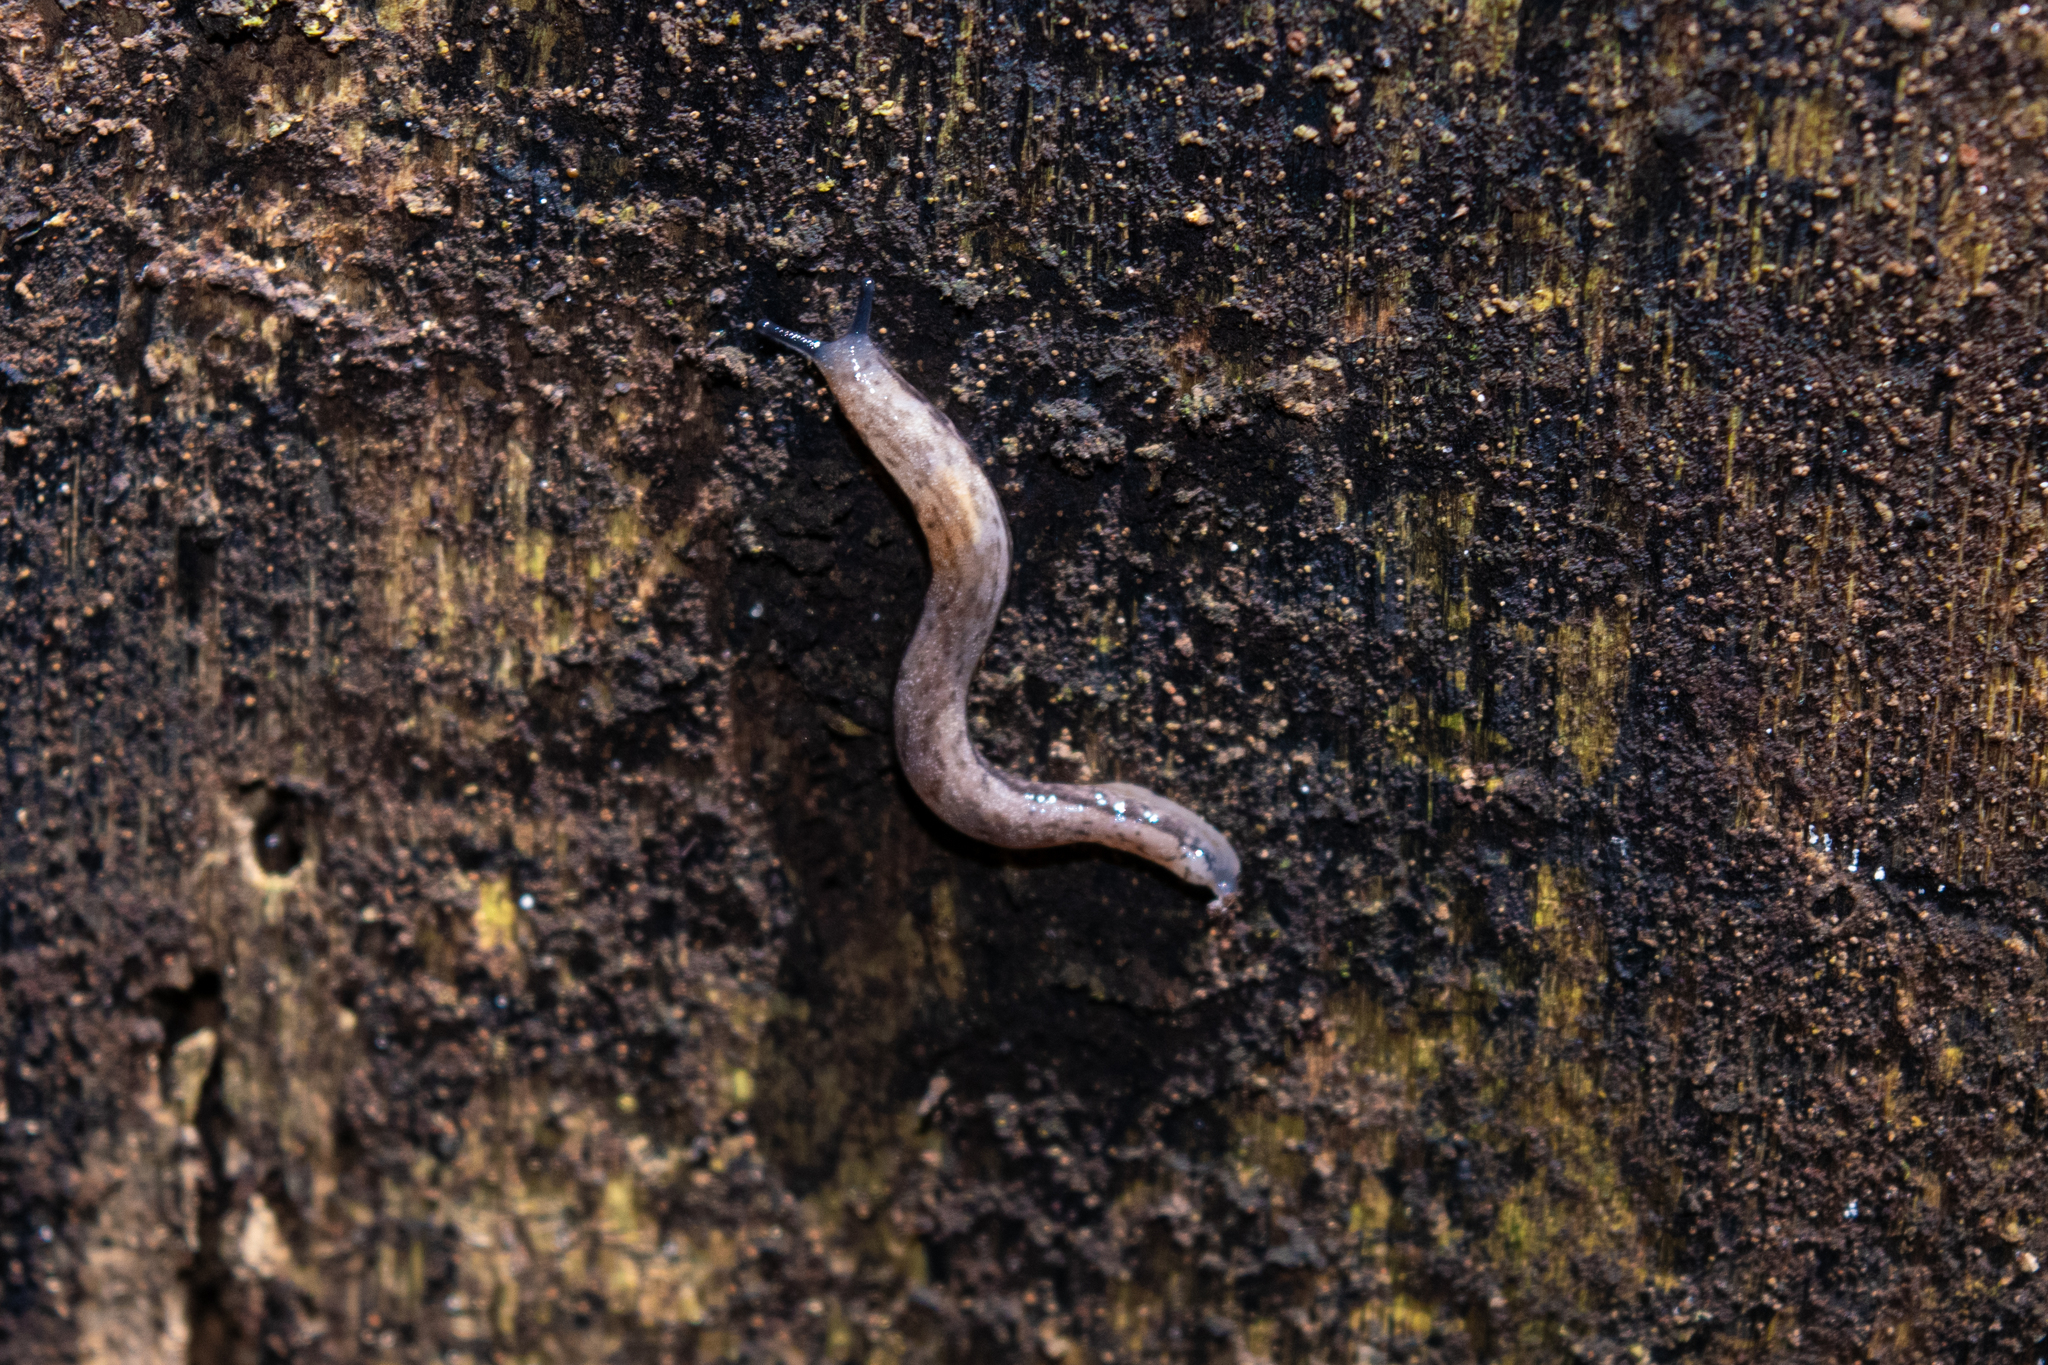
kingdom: Animalia
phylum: Mollusca
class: Gastropoda
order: Stylommatophora
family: Philomycidae
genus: Pallifera
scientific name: Pallifera
